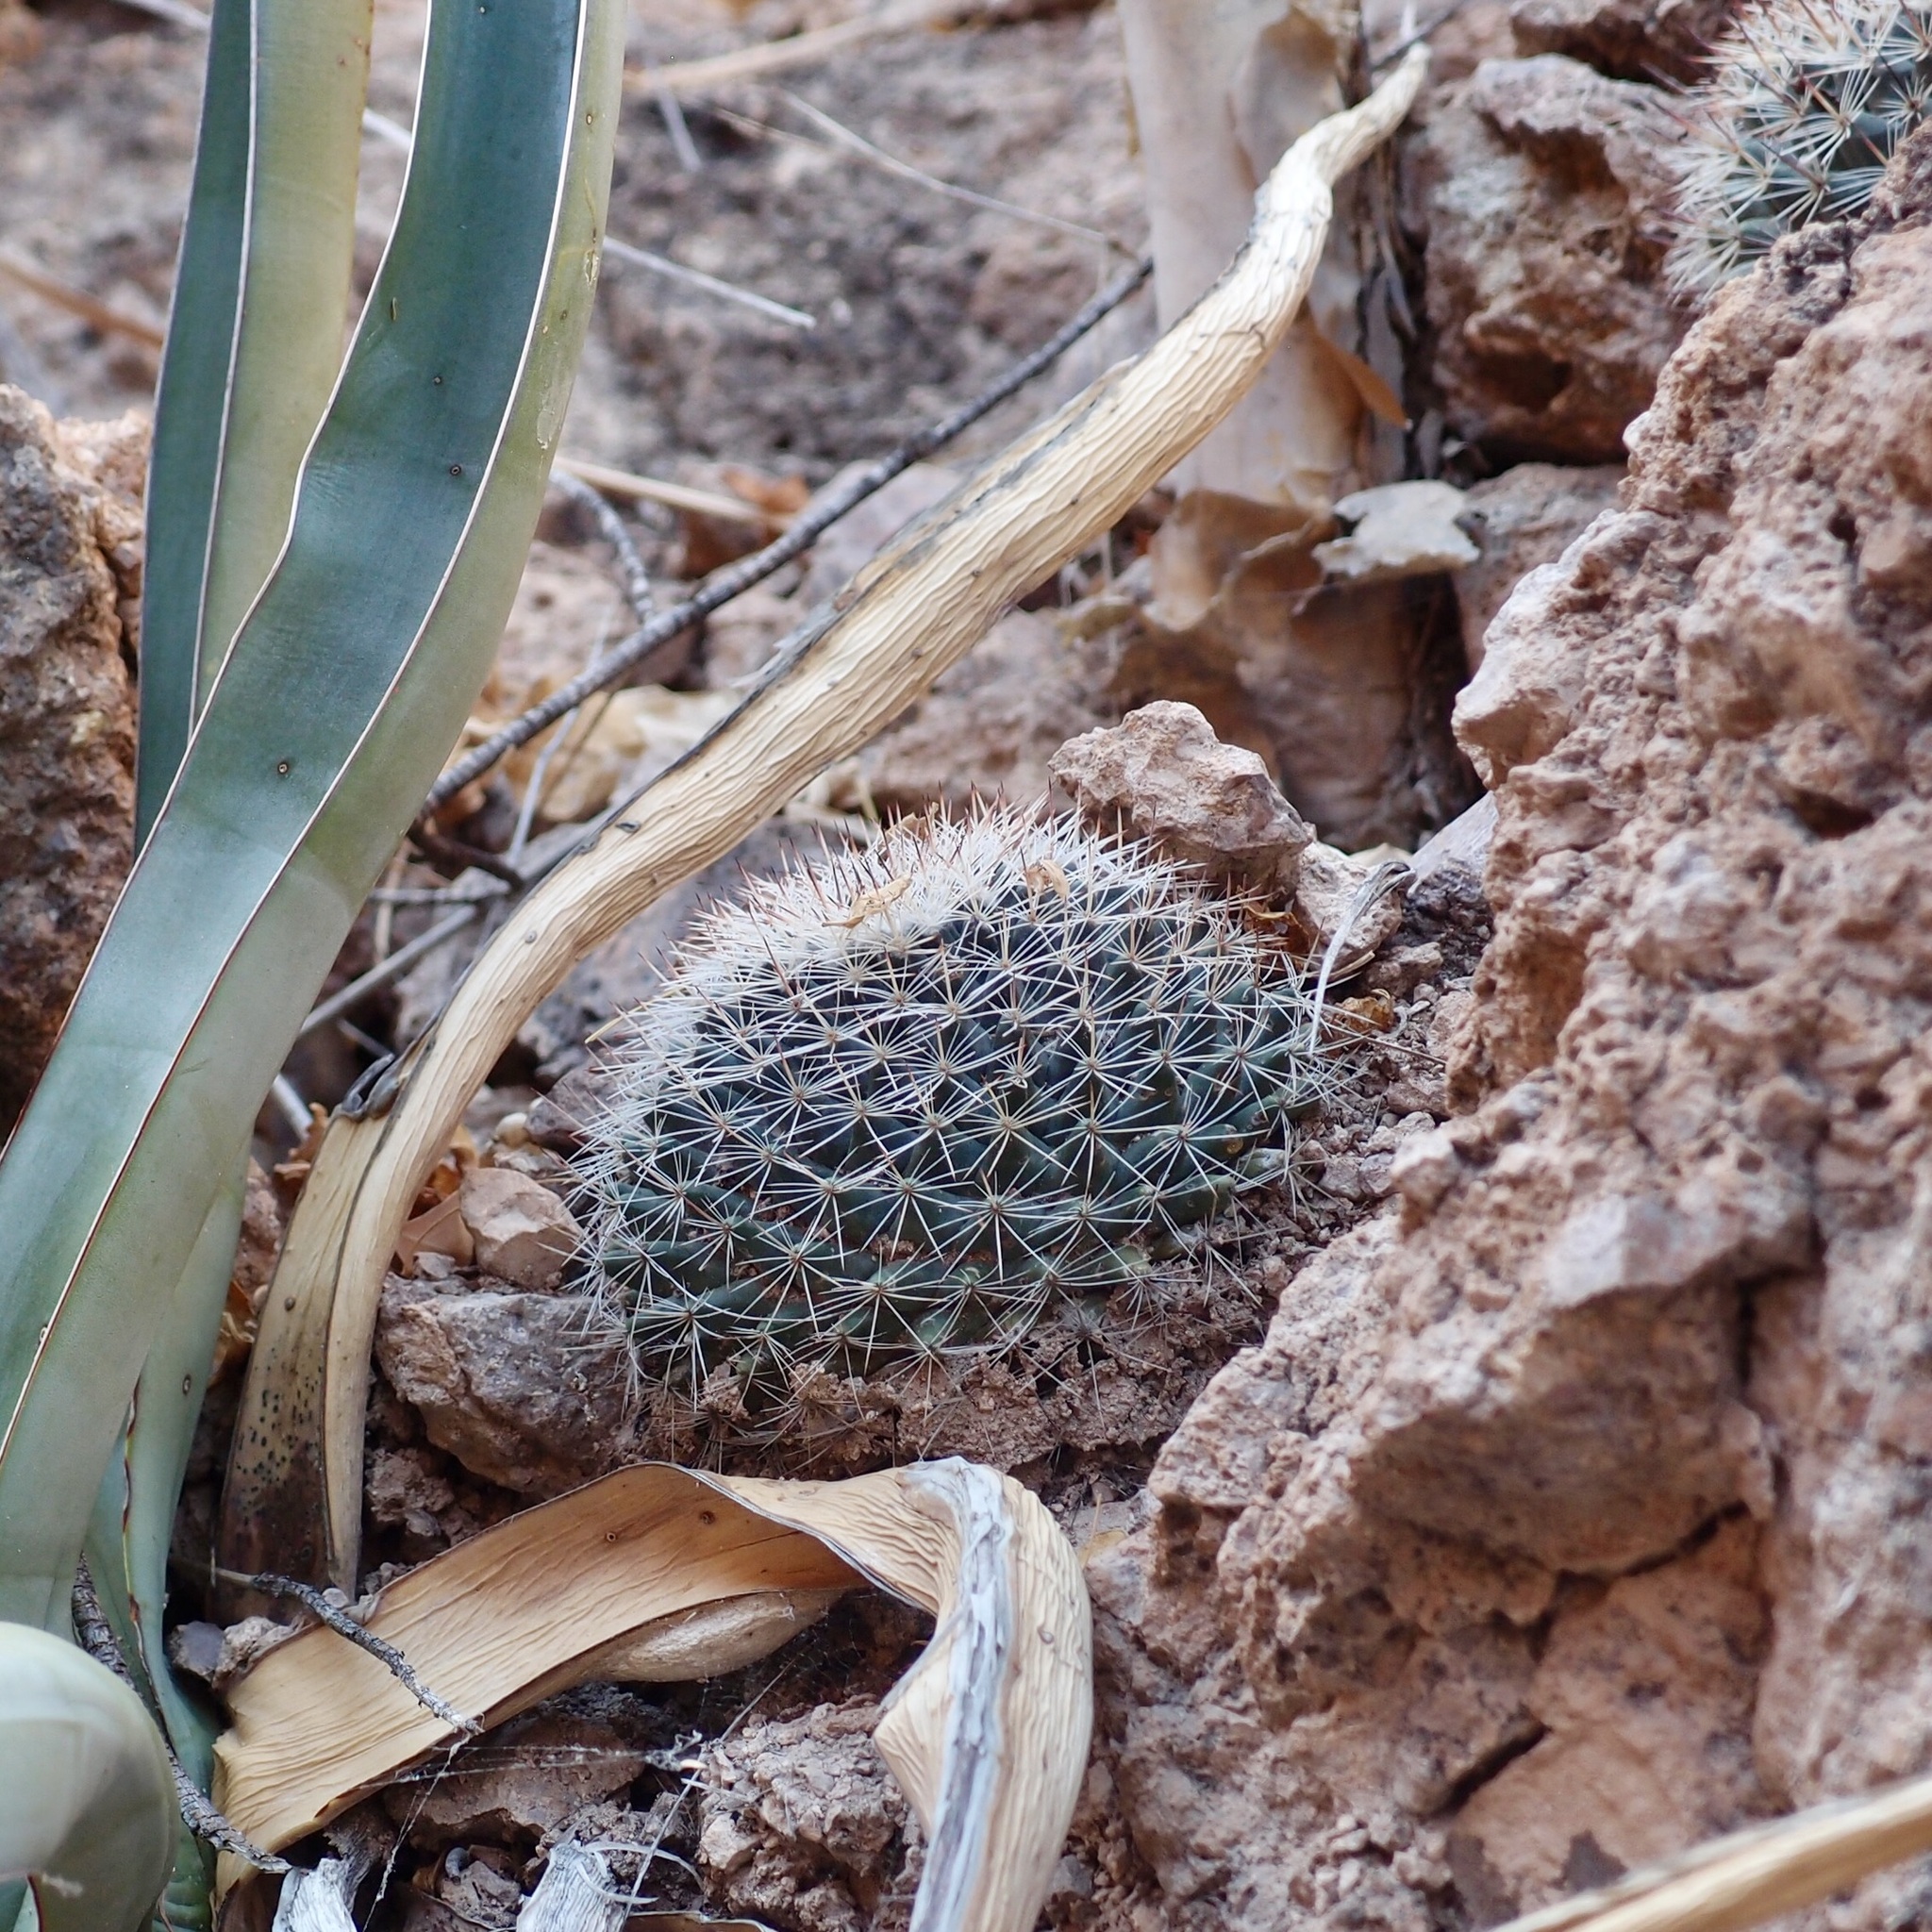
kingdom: Plantae
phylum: Tracheophyta
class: Magnoliopsida
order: Caryophyllales
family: Cactaceae
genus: Mammillaria
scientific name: Mammillaria johnstonii
